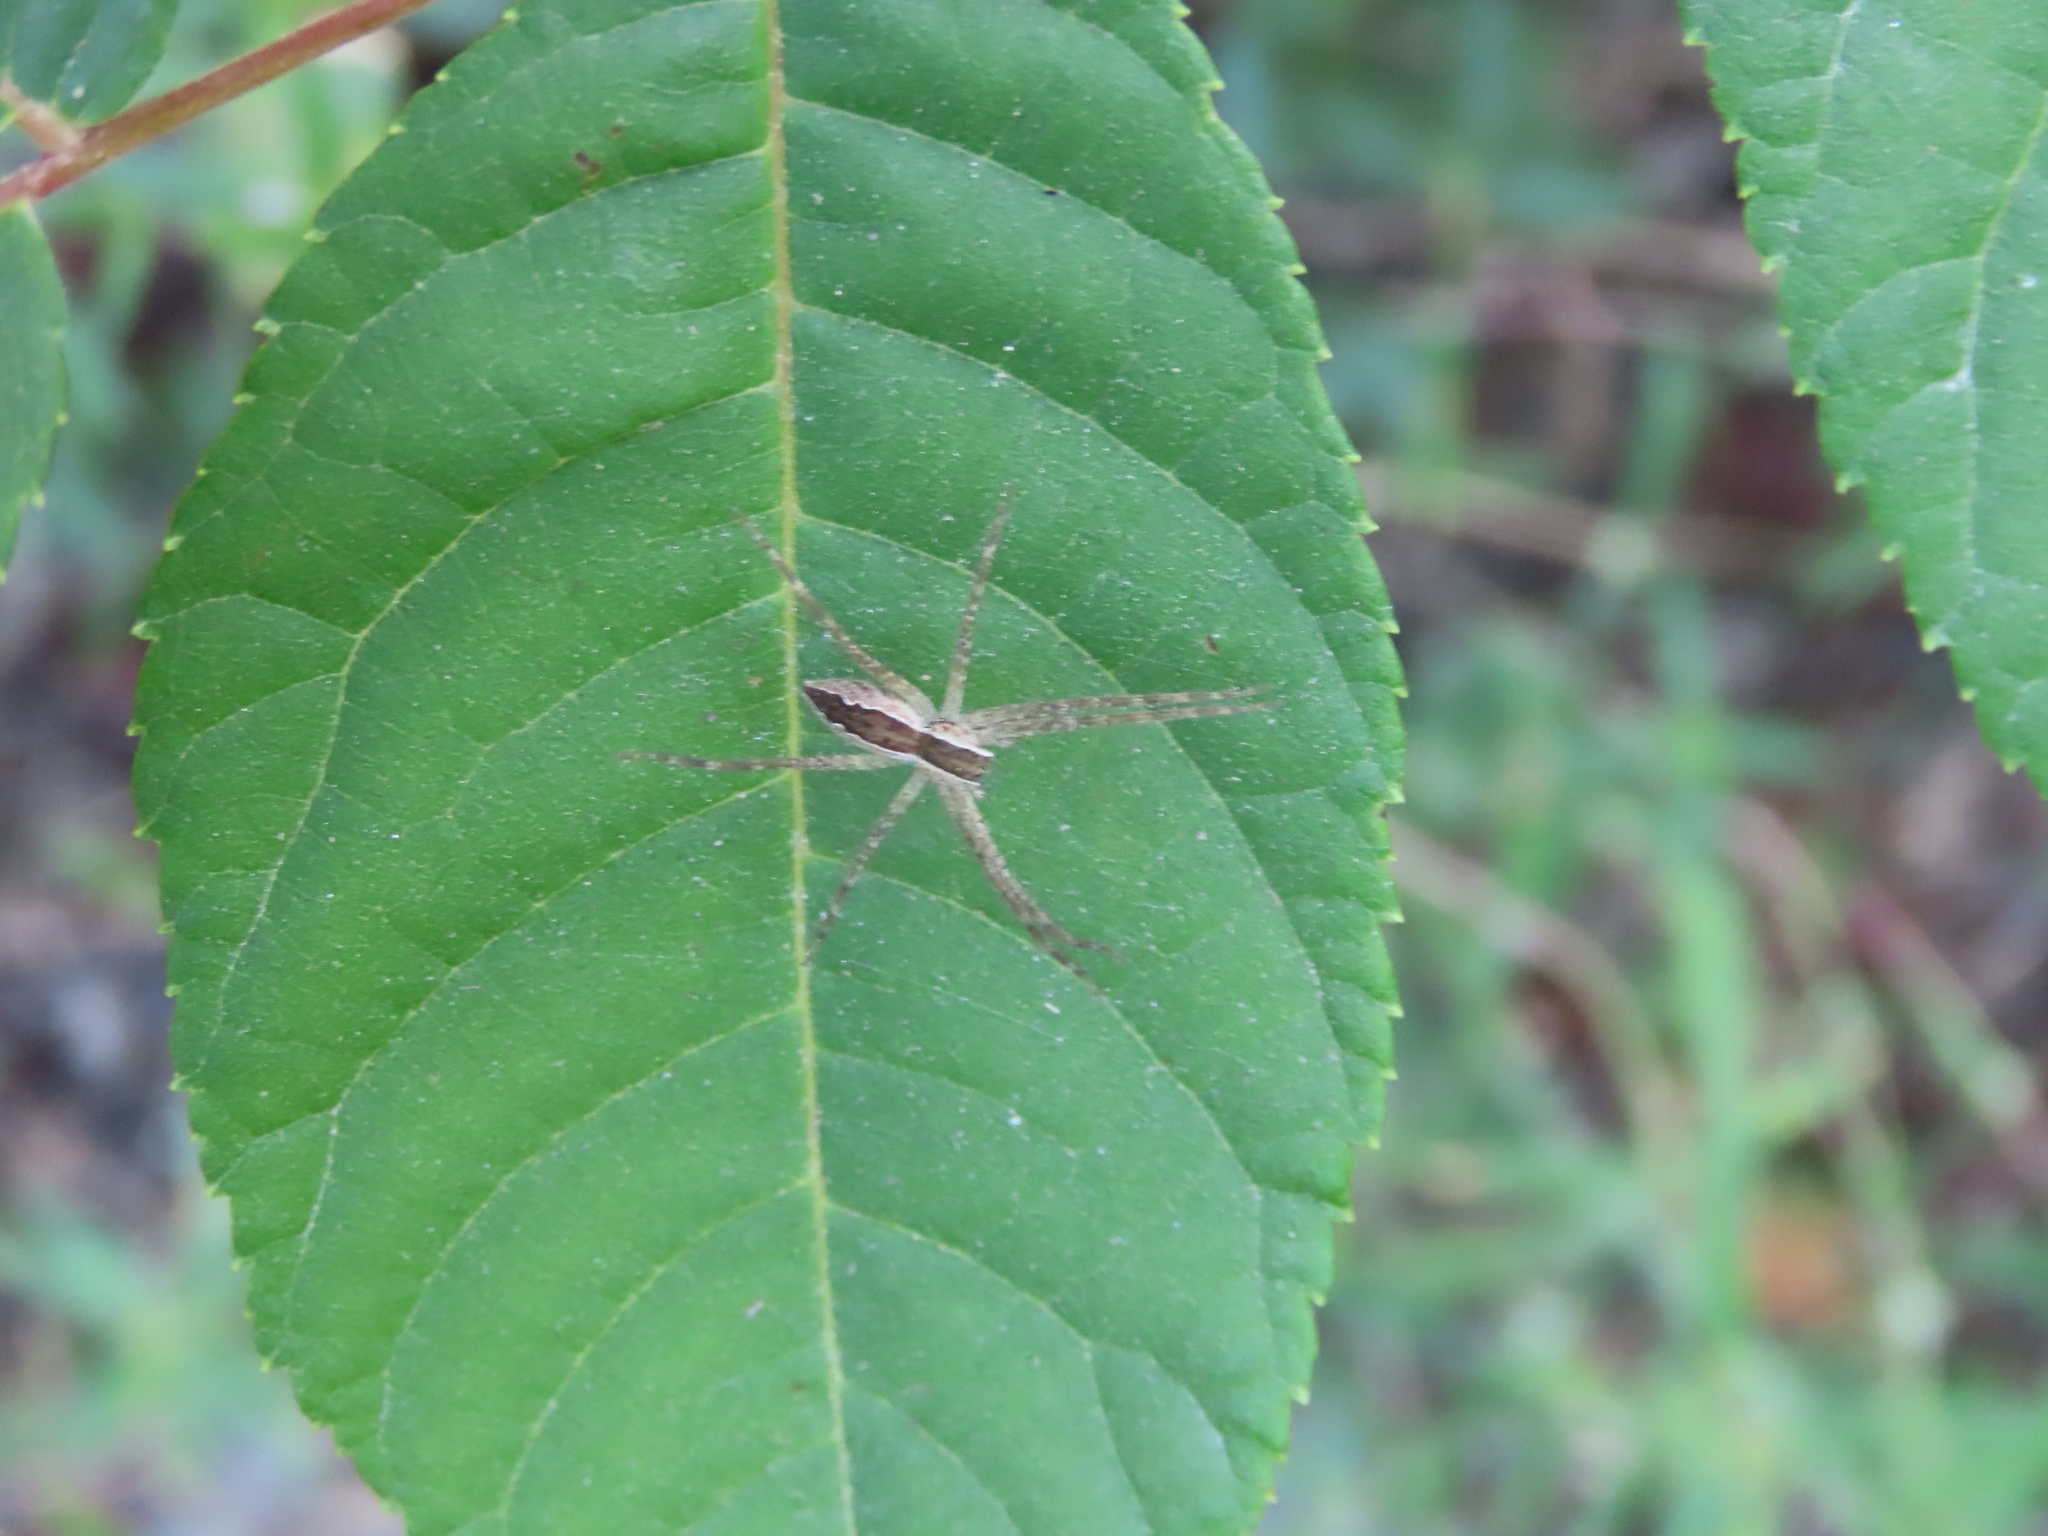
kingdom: Animalia
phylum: Arthropoda
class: Arachnida
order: Araneae
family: Pisauridae
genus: Pisaurina
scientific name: Pisaurina mira
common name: American nursery web spider
